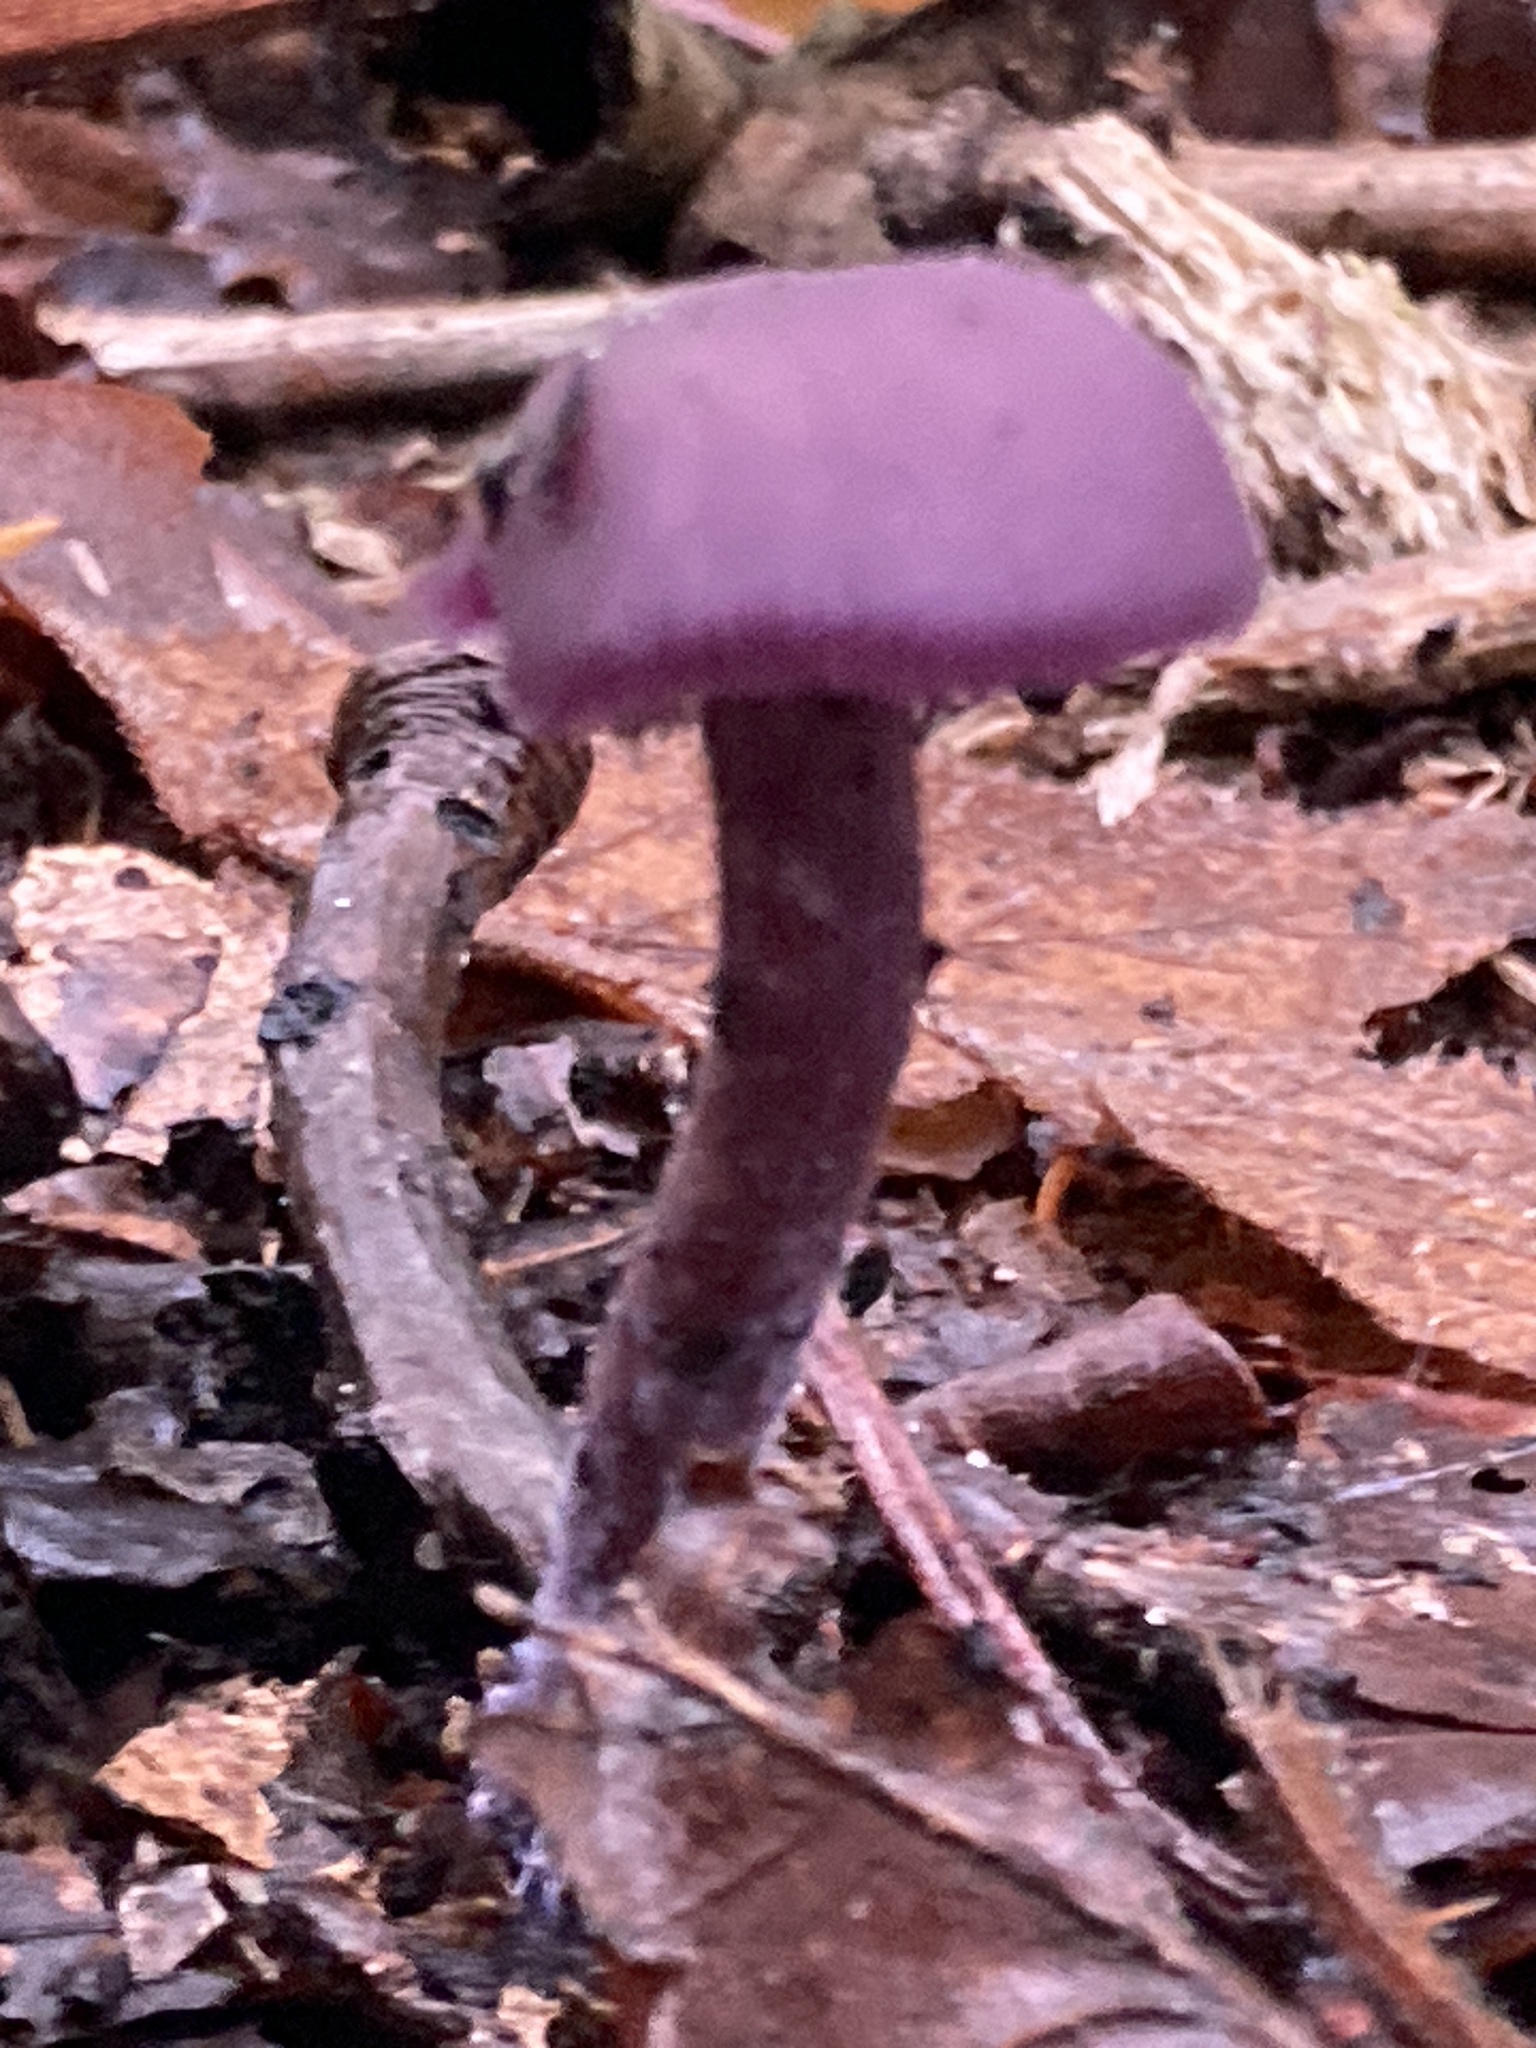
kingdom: Fungi
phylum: Basidiomycota
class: Agaricomycetes
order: Agaricales
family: Hydnangiaceae
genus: Laccaria
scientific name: Laccaria amethystina
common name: Amethyst deceiver
